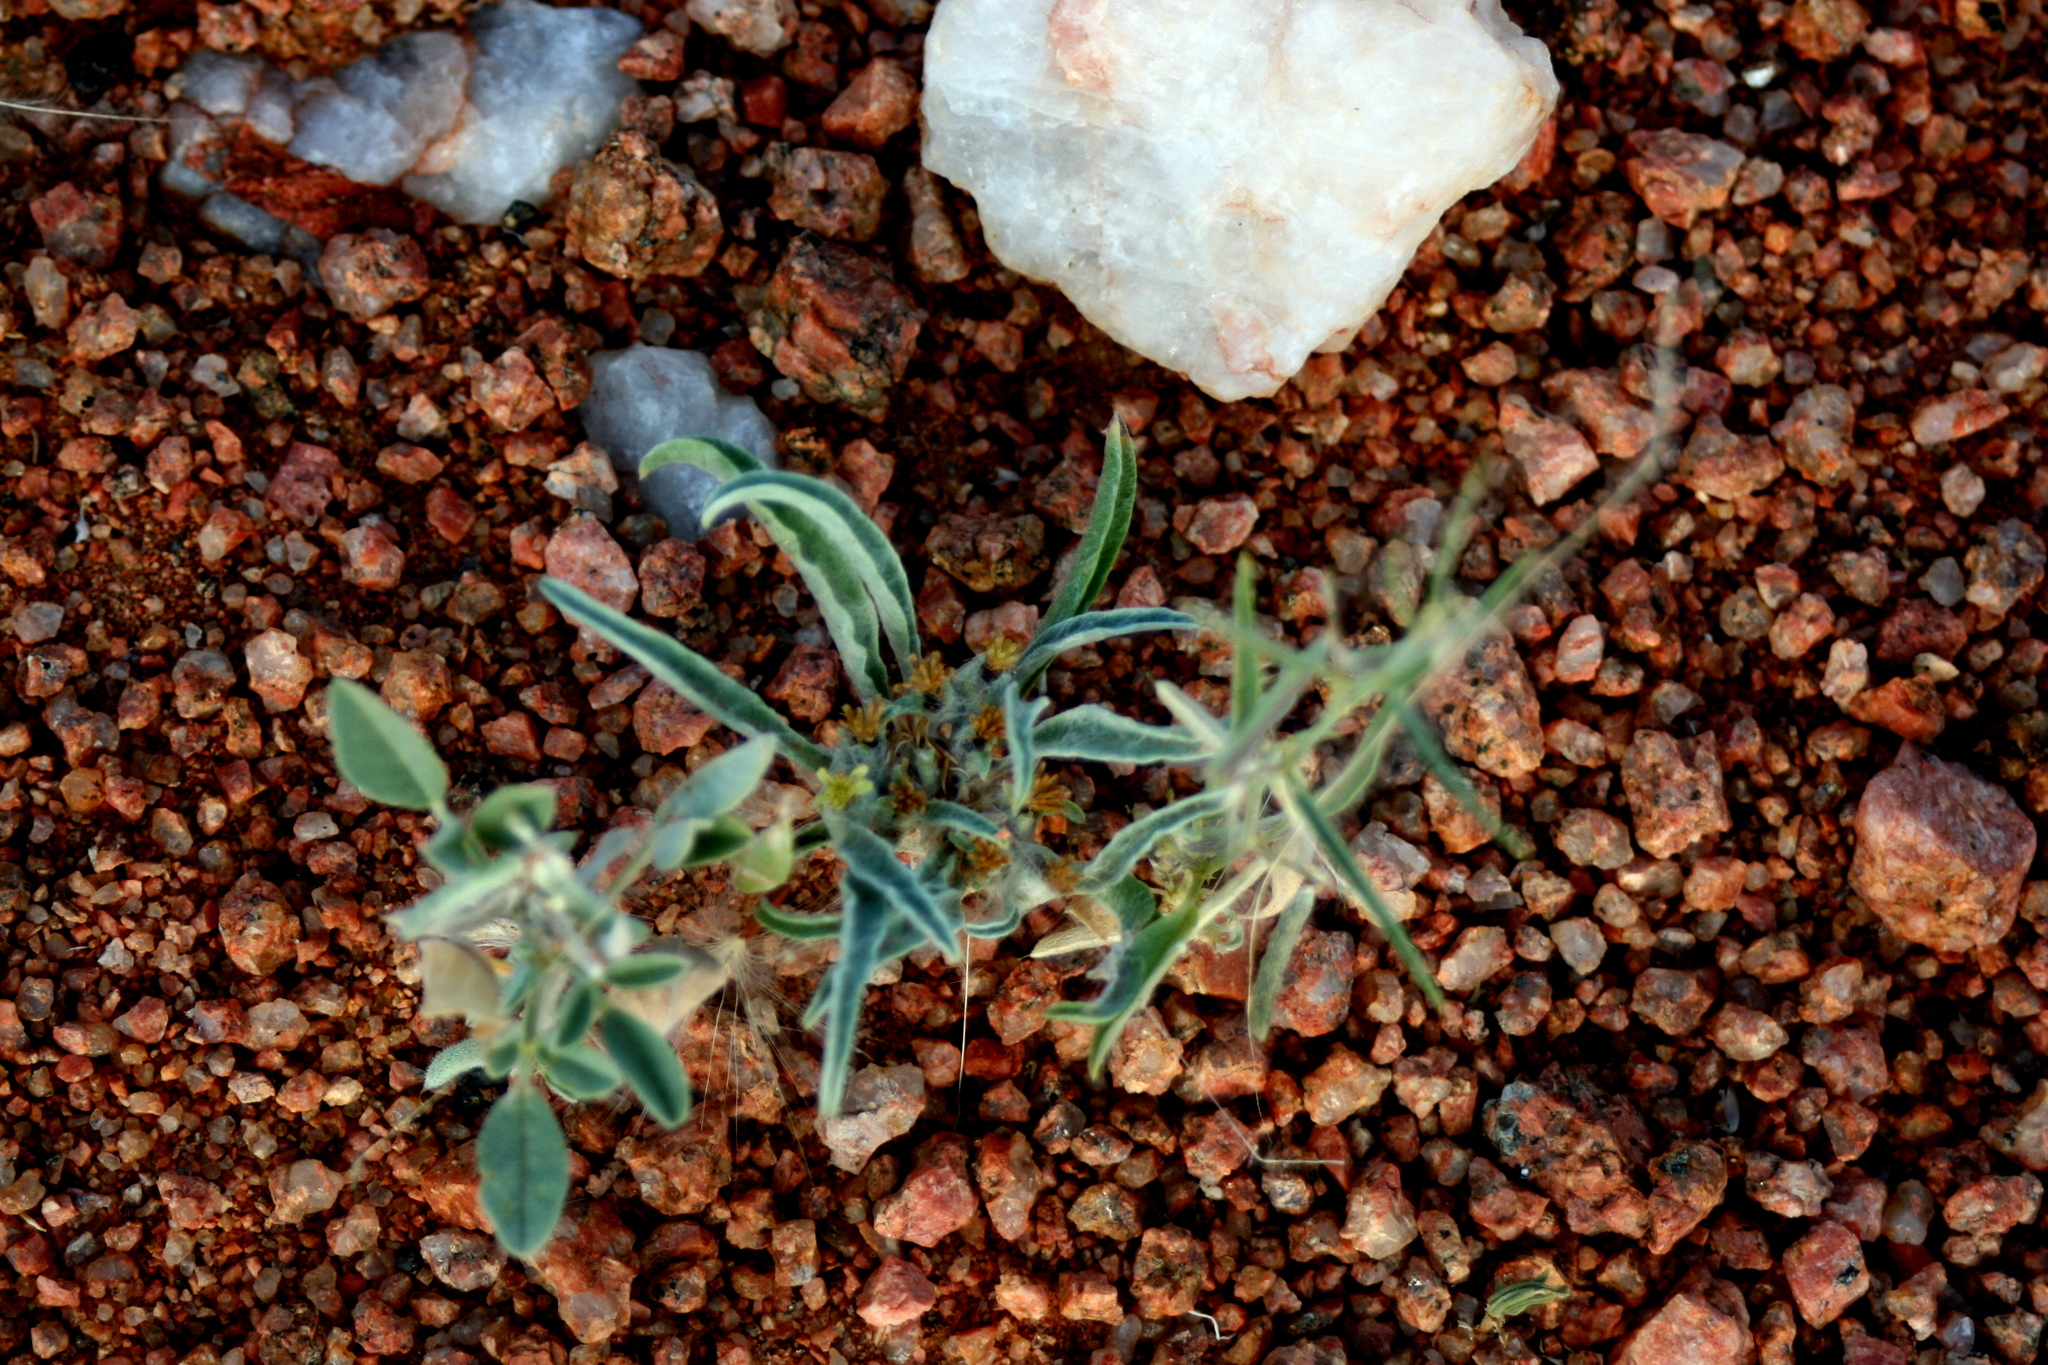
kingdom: Plantae
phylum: Tracheophyta
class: Magnoliopsida
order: Asterales
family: Asteraceae
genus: Geigeria
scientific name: Geigeria acaulis
